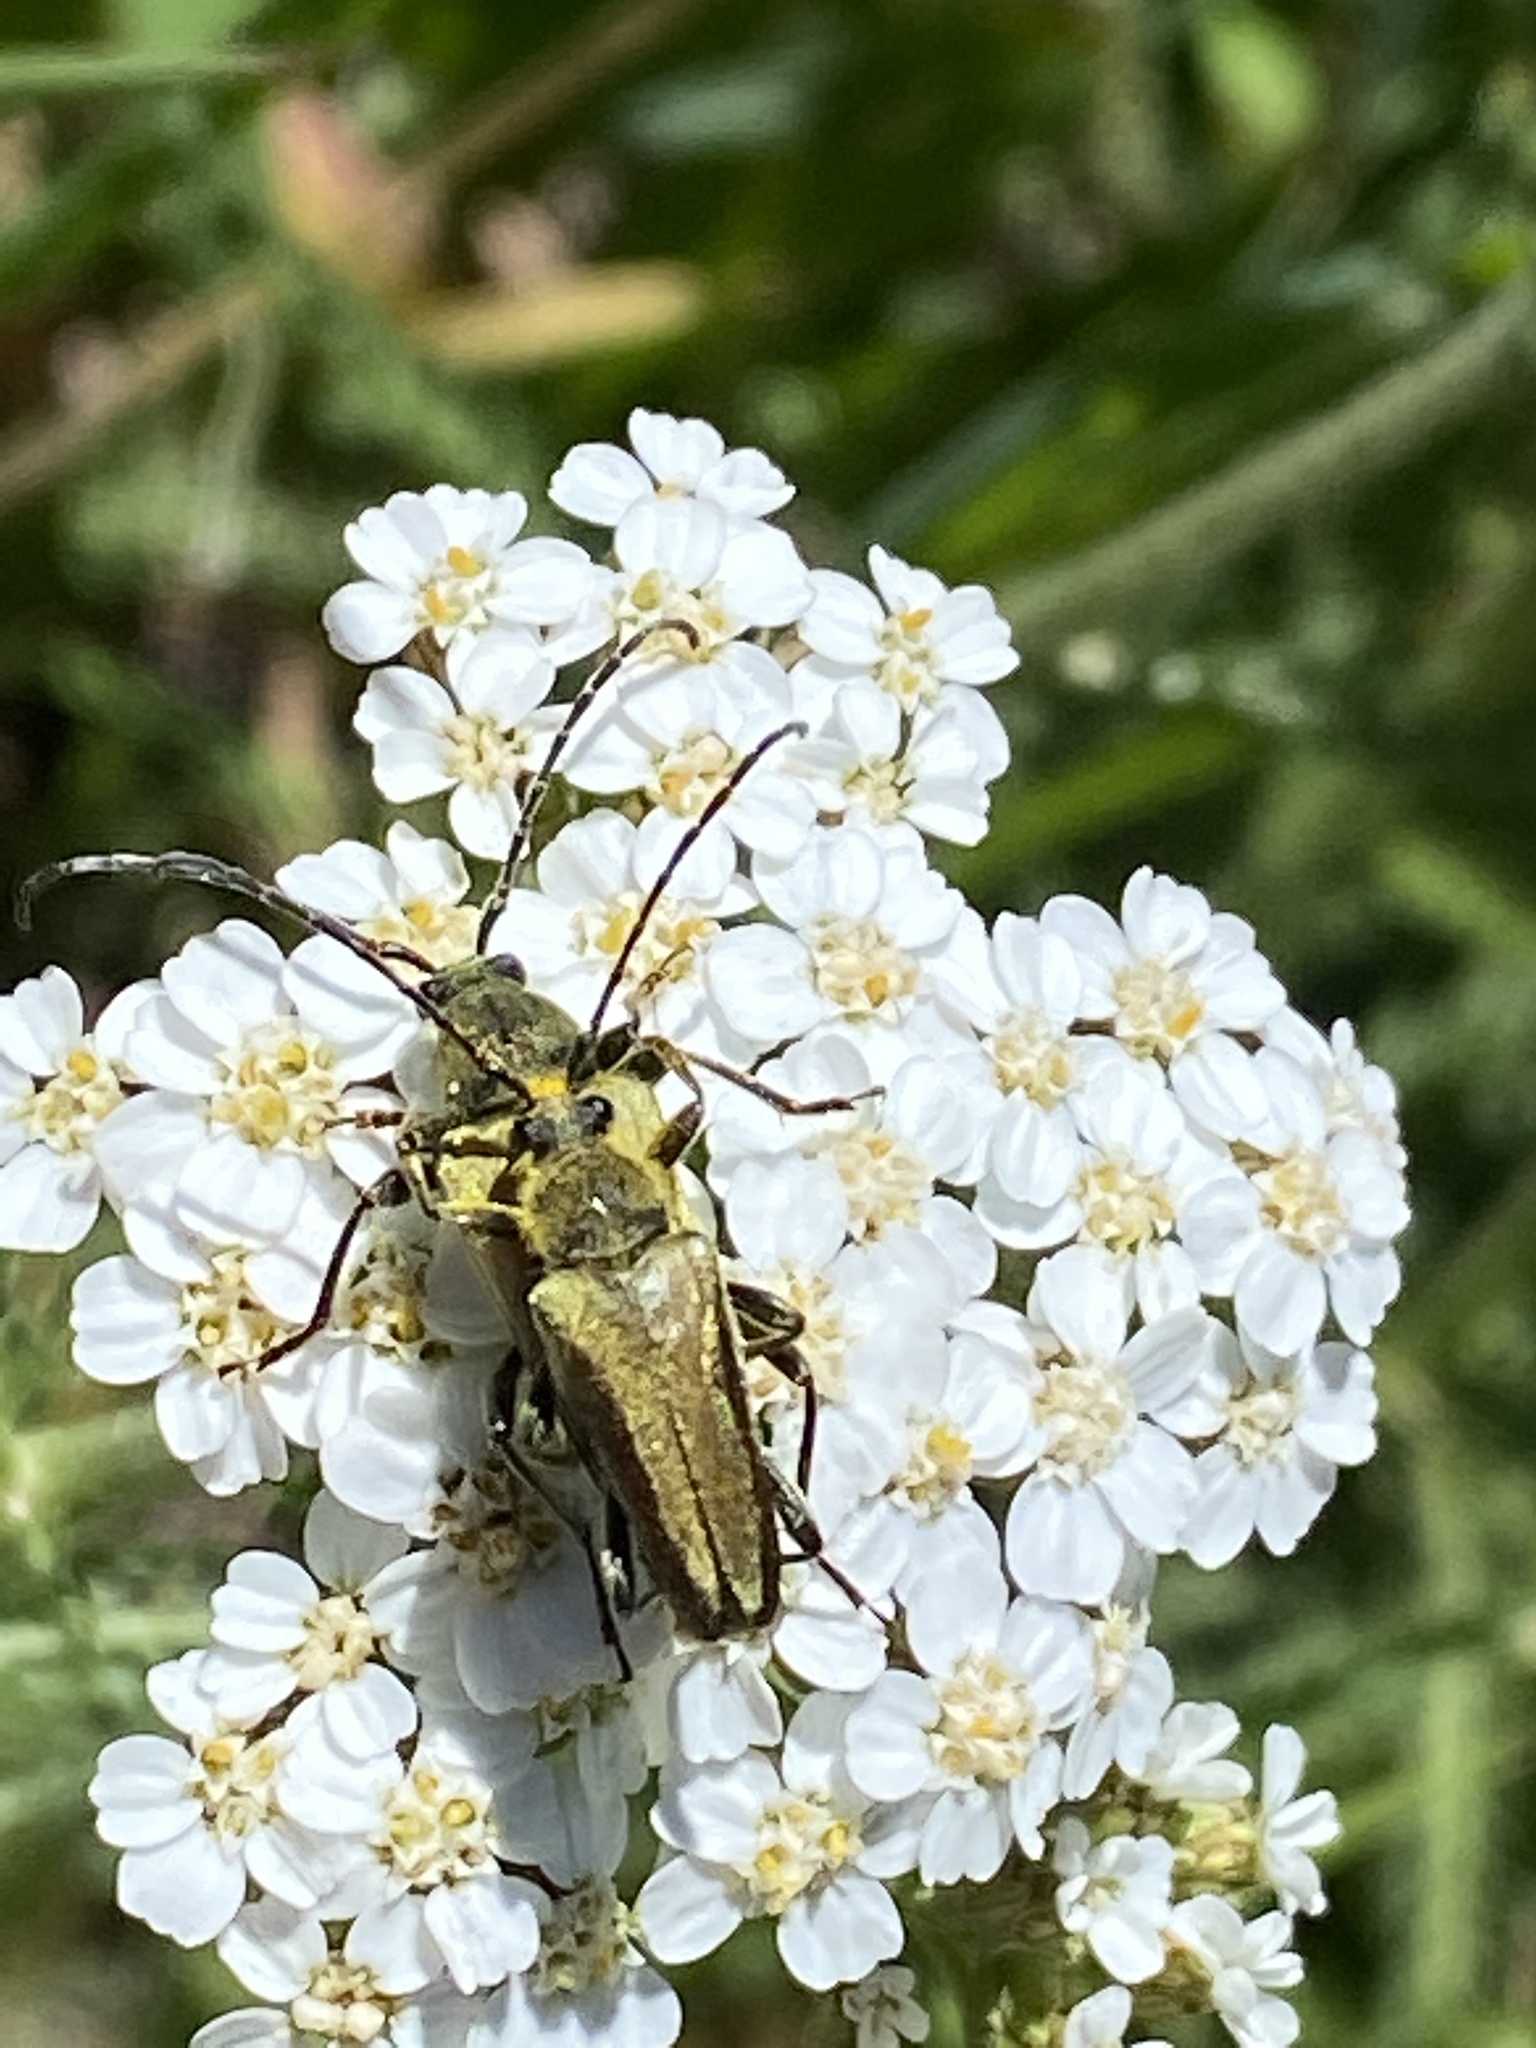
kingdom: Animalia
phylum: Arthropoda
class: Insecta
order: Coleoptera
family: Cerambycidae
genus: Cosmosalia
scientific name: Cosmosalia chrysocoma
